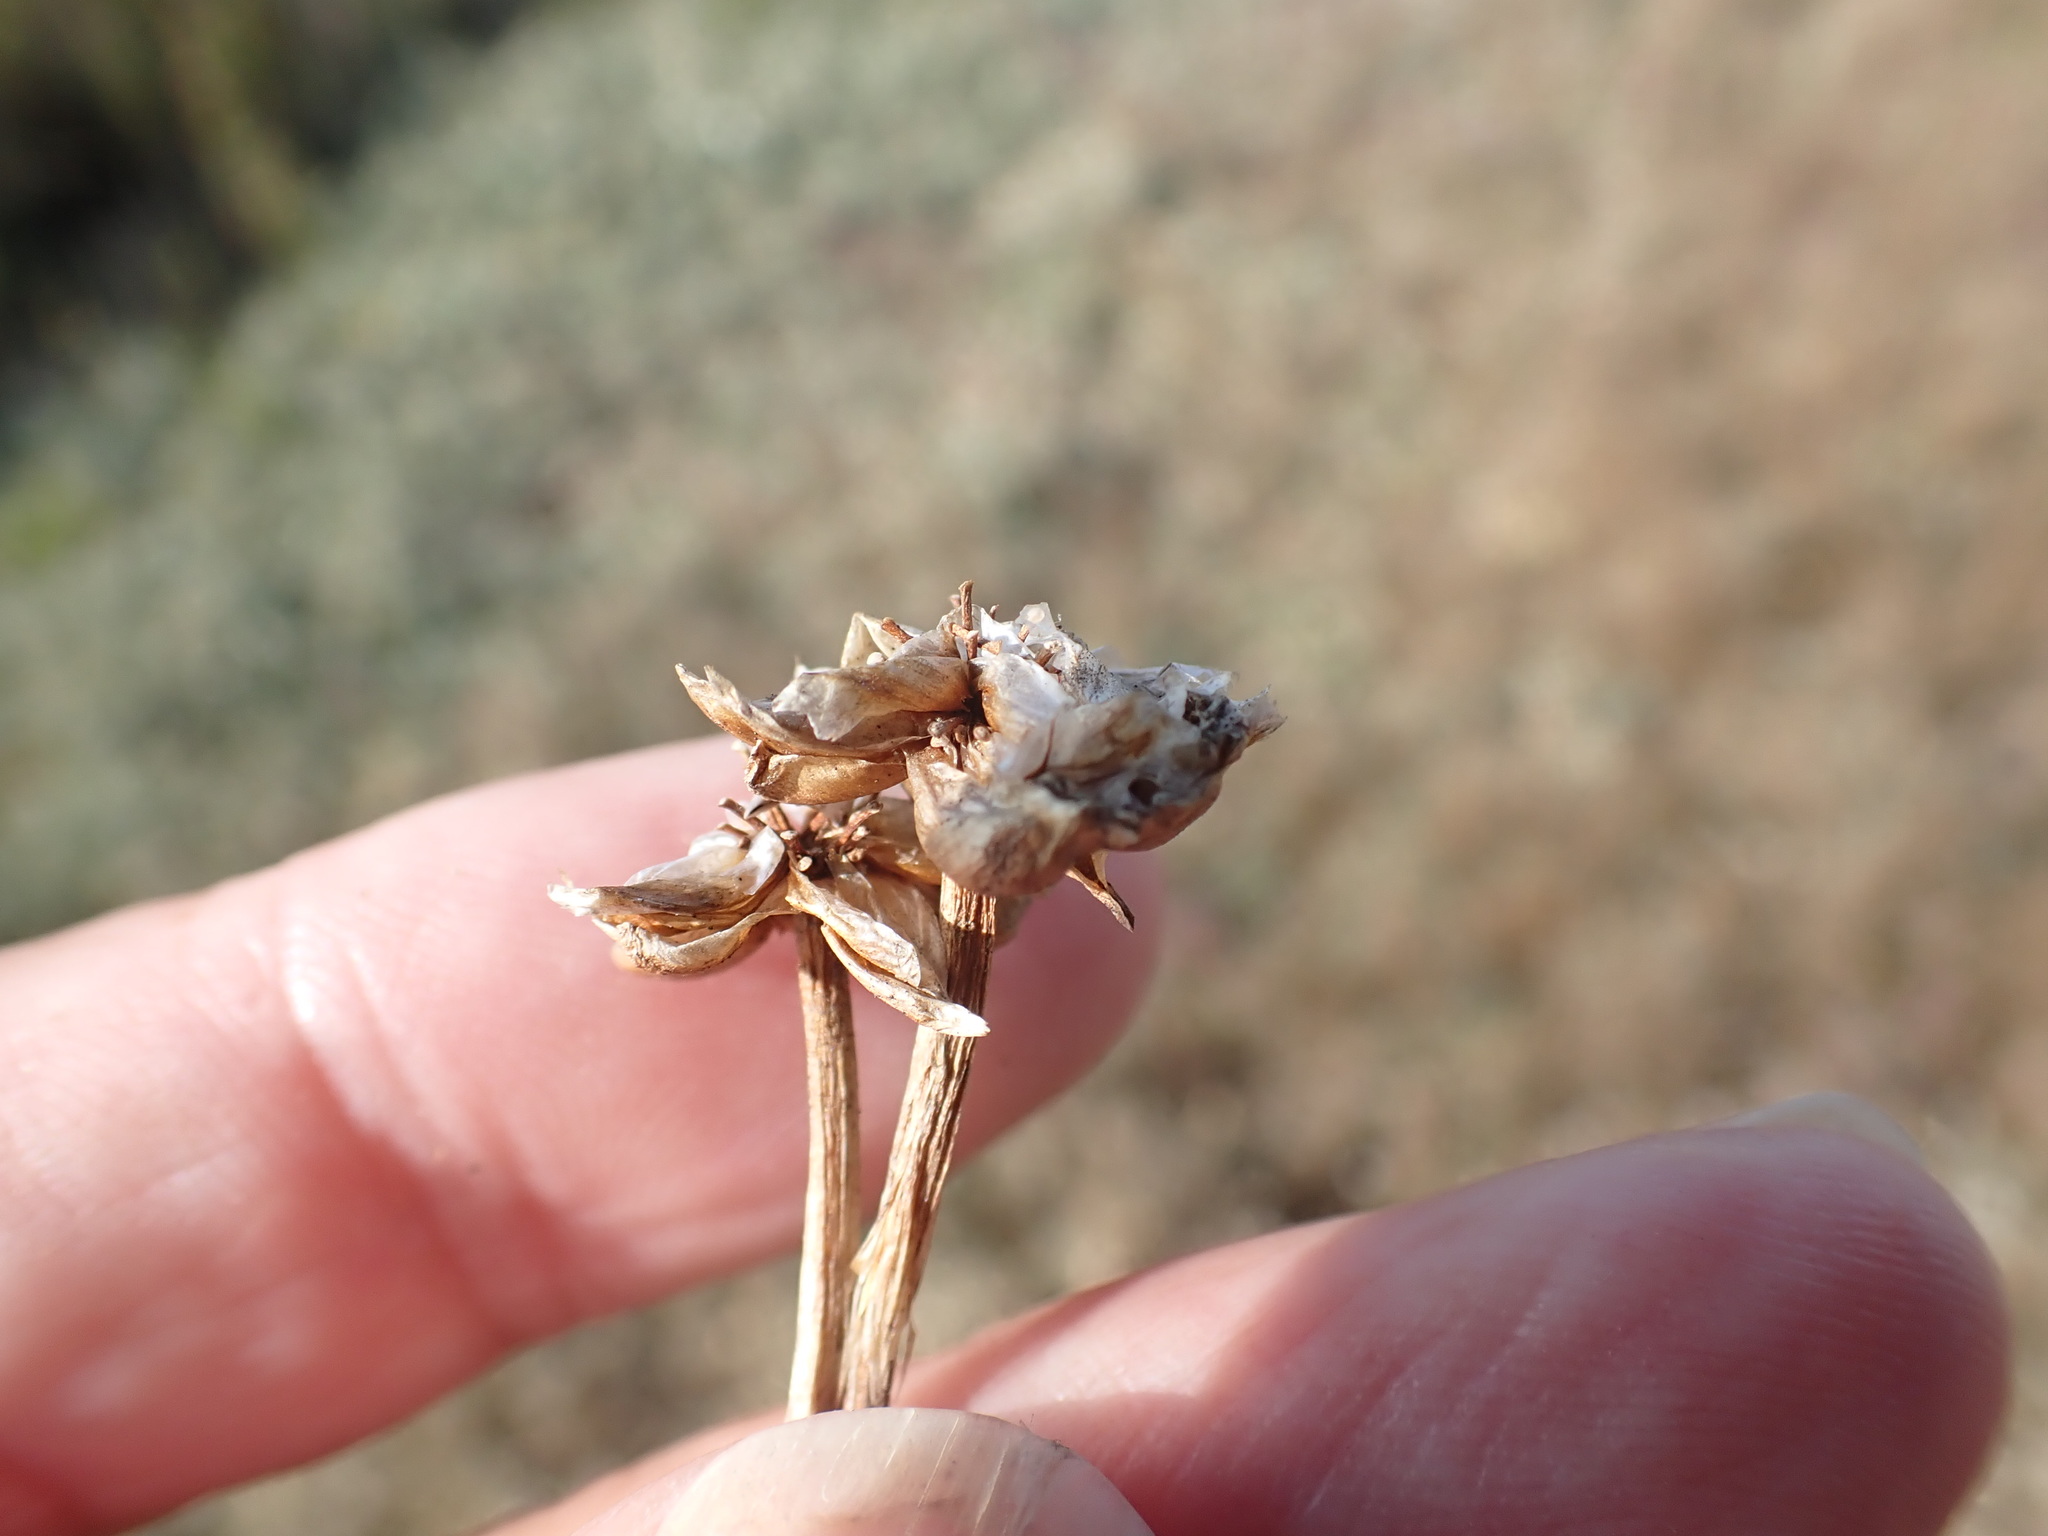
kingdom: Plantae
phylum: Tracheophyta
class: Magnoliopsida
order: Caryophyllales
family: Plumbaginaceae
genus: Armeria
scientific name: Armeria maritima
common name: Thrift
